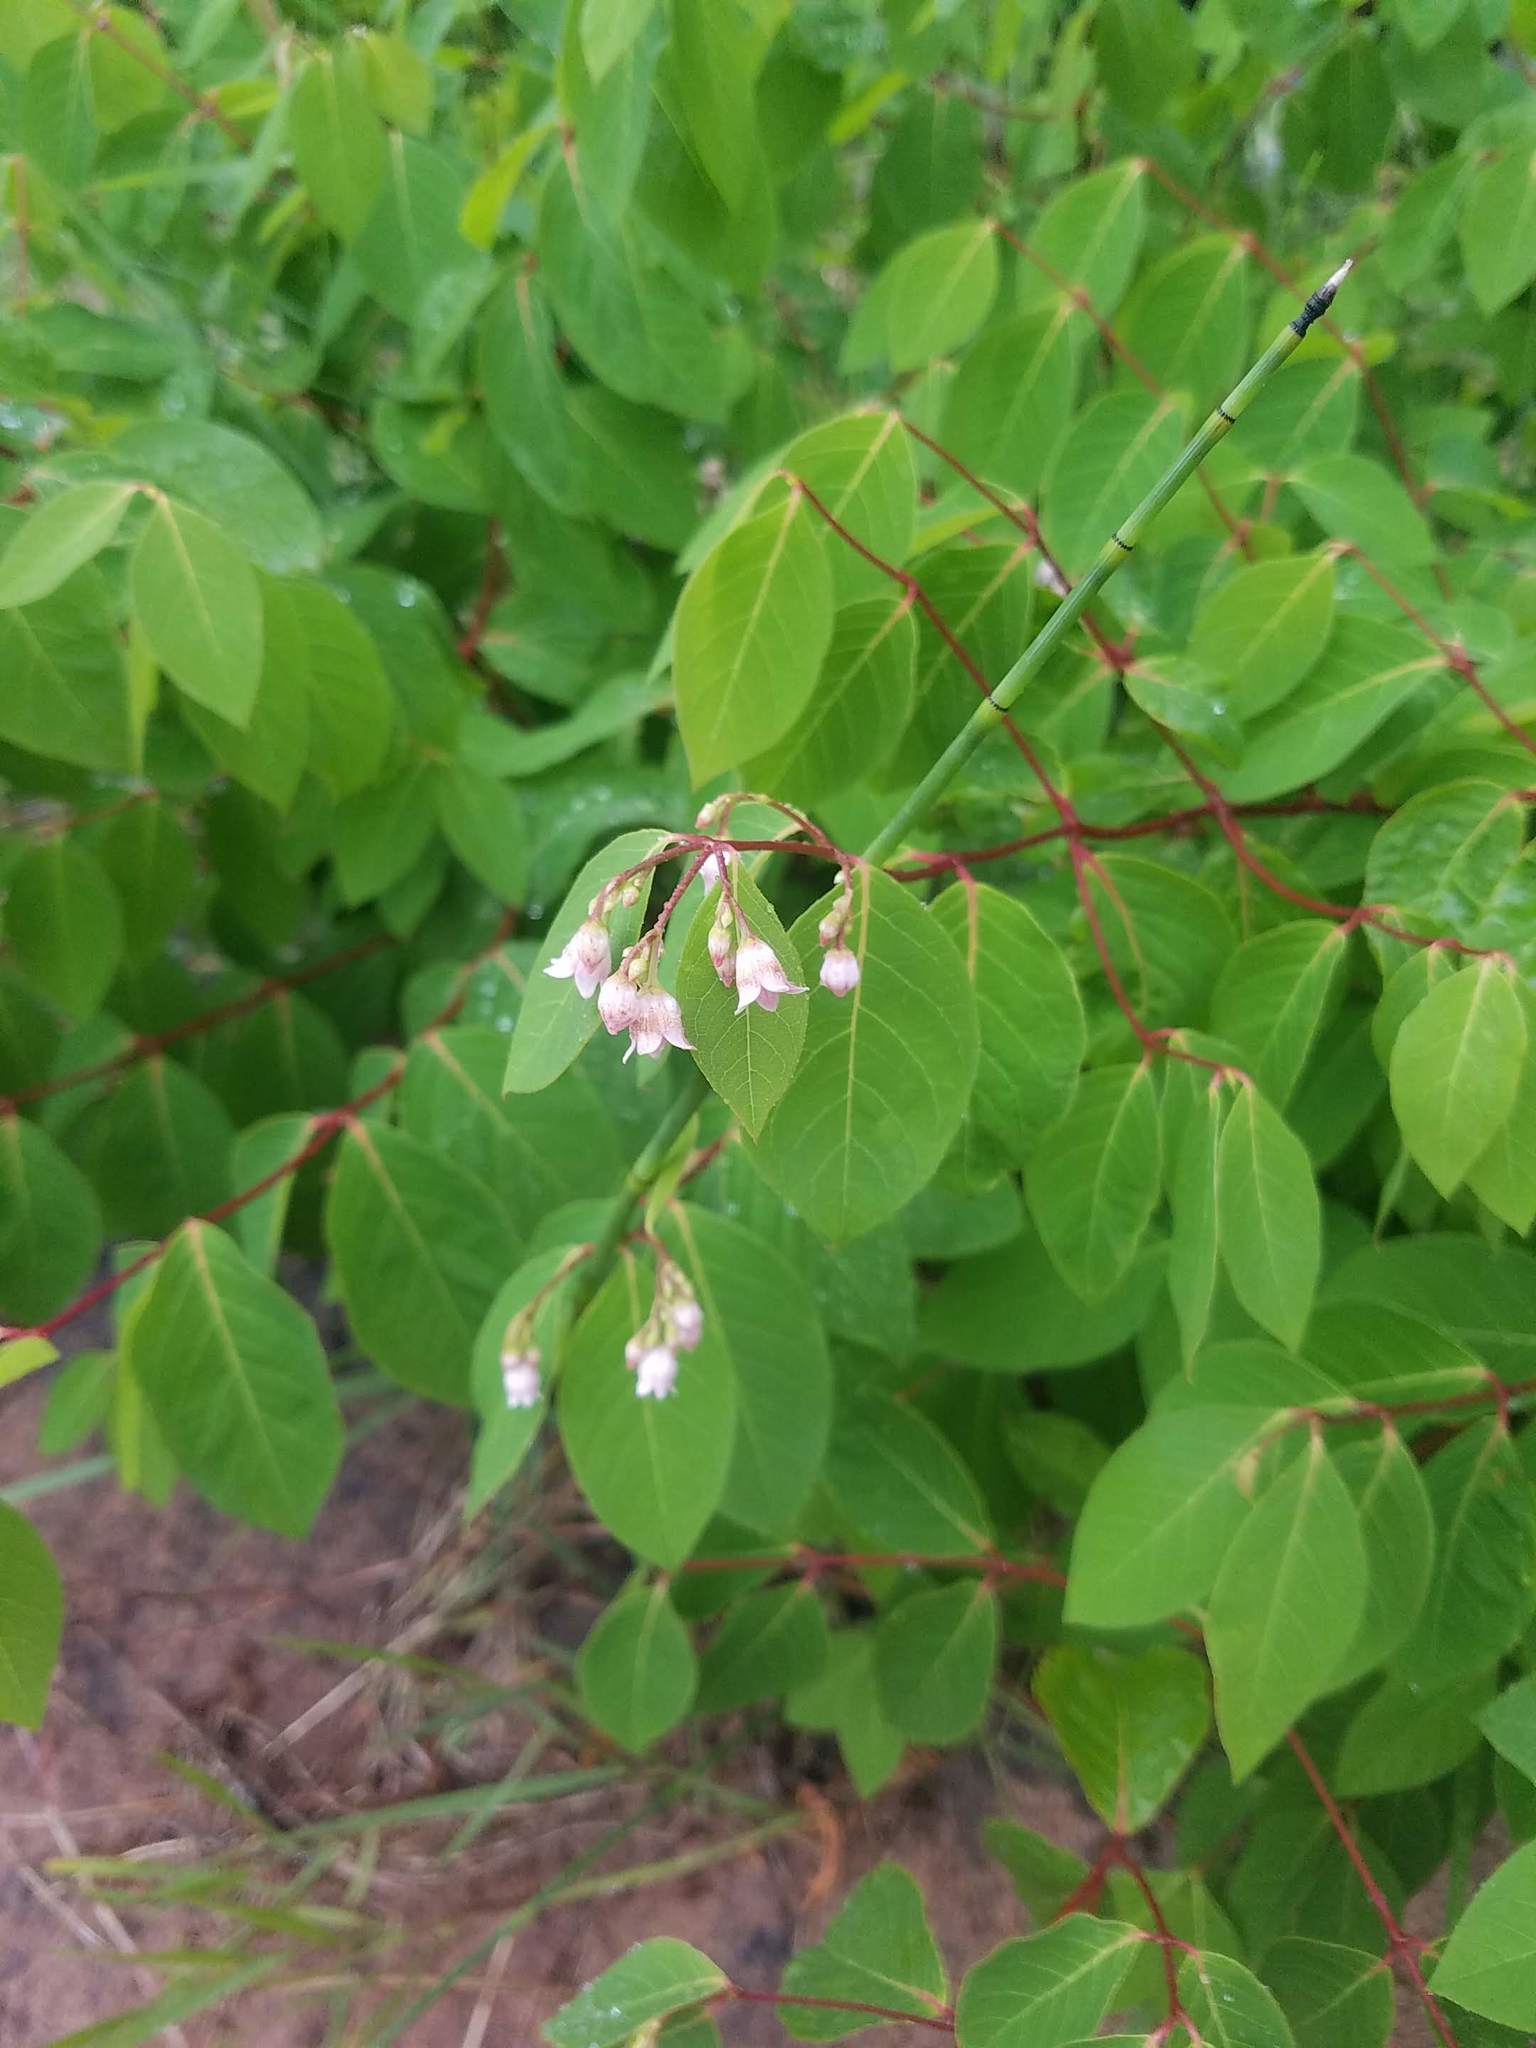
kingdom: Plantae
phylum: Tracheophyta
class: Magnoliopsida
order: Gentianales
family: Apocynaceae
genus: Apocynum
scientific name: Apocynum androsaemifolium
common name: Spreading dogbane
